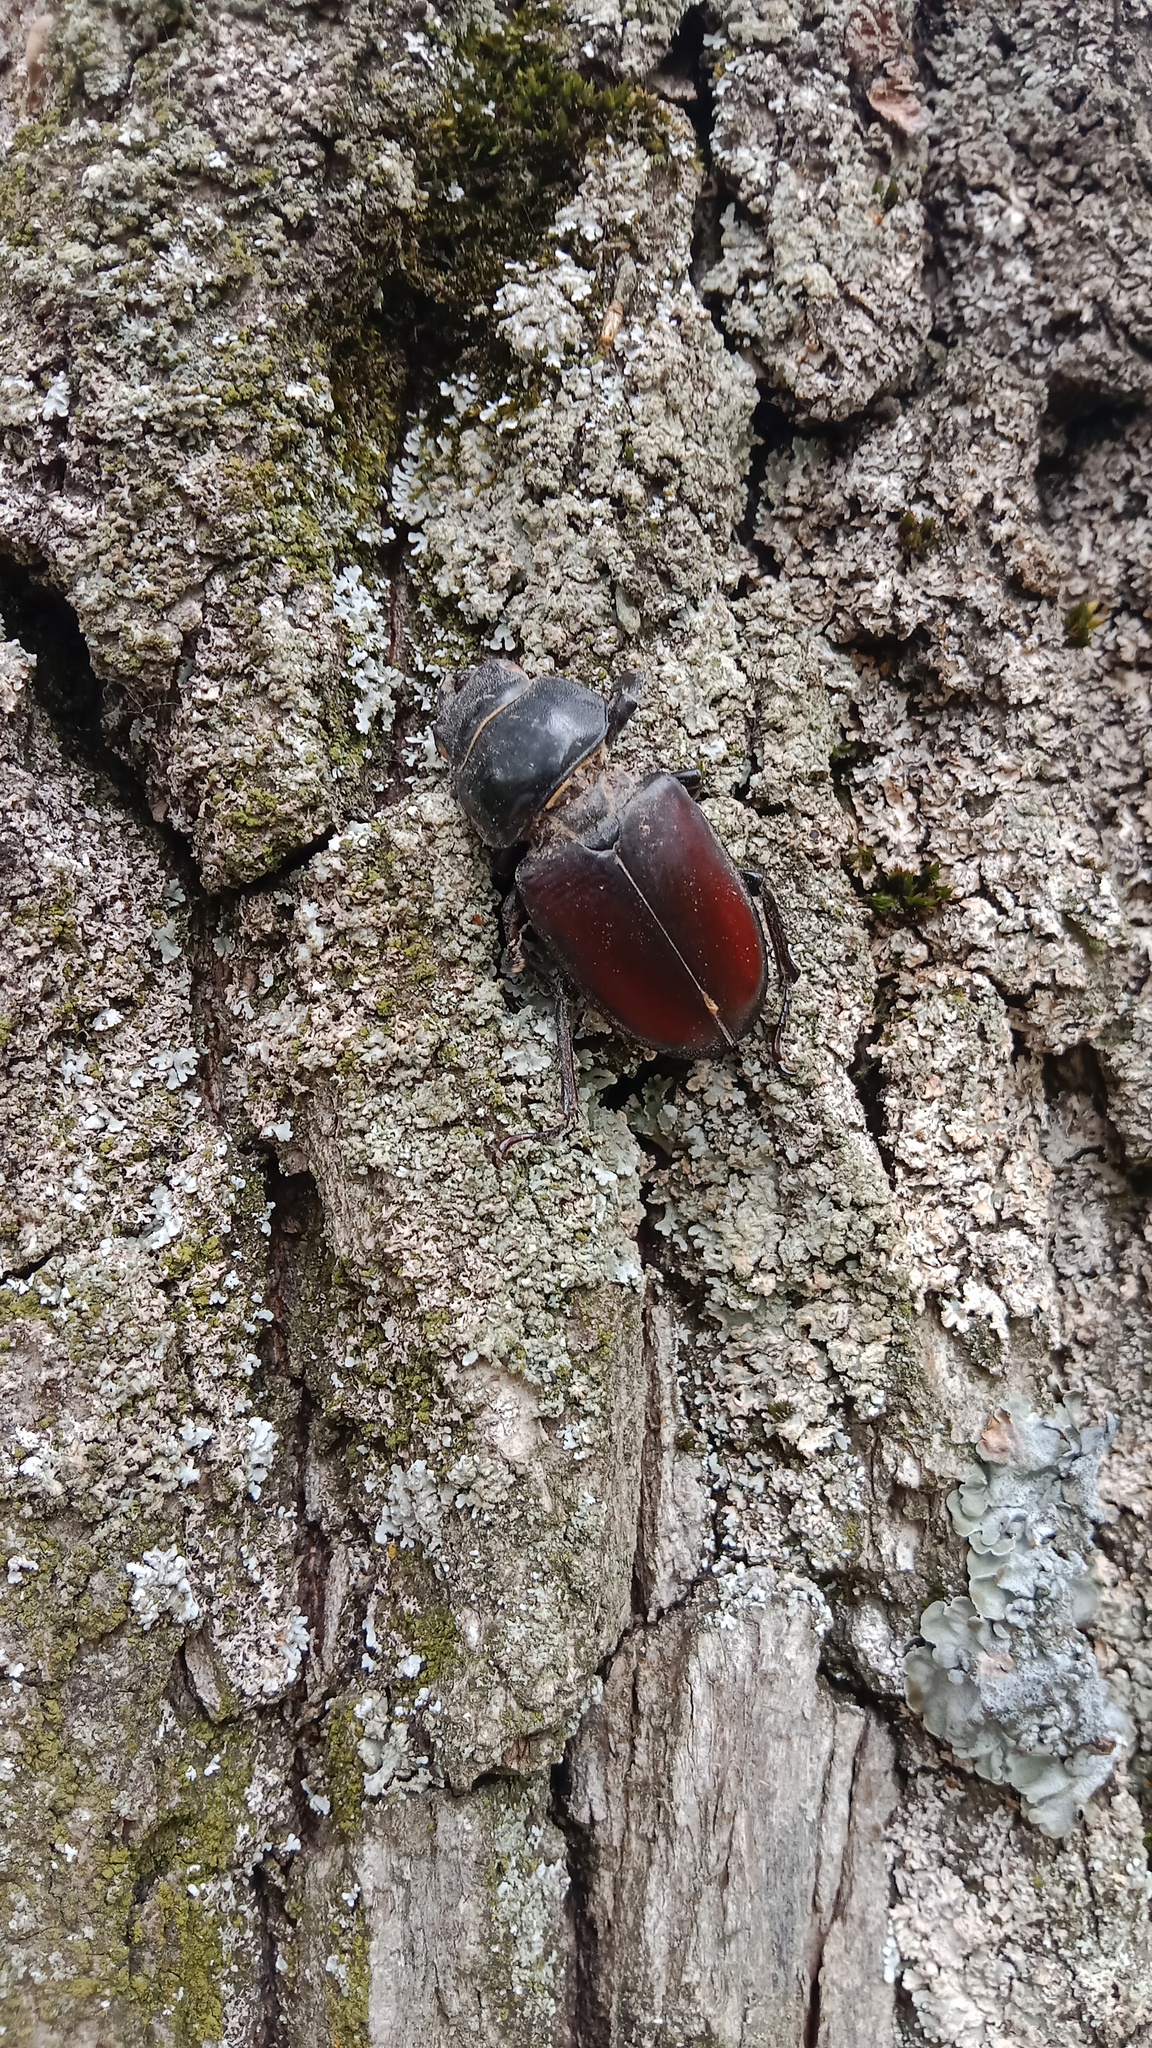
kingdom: Animalia
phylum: Arthropoda
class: Insecta
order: Coleoptera
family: Lucanidae
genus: Lucanus
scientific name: Lucanus cervus
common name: Stag beetle
